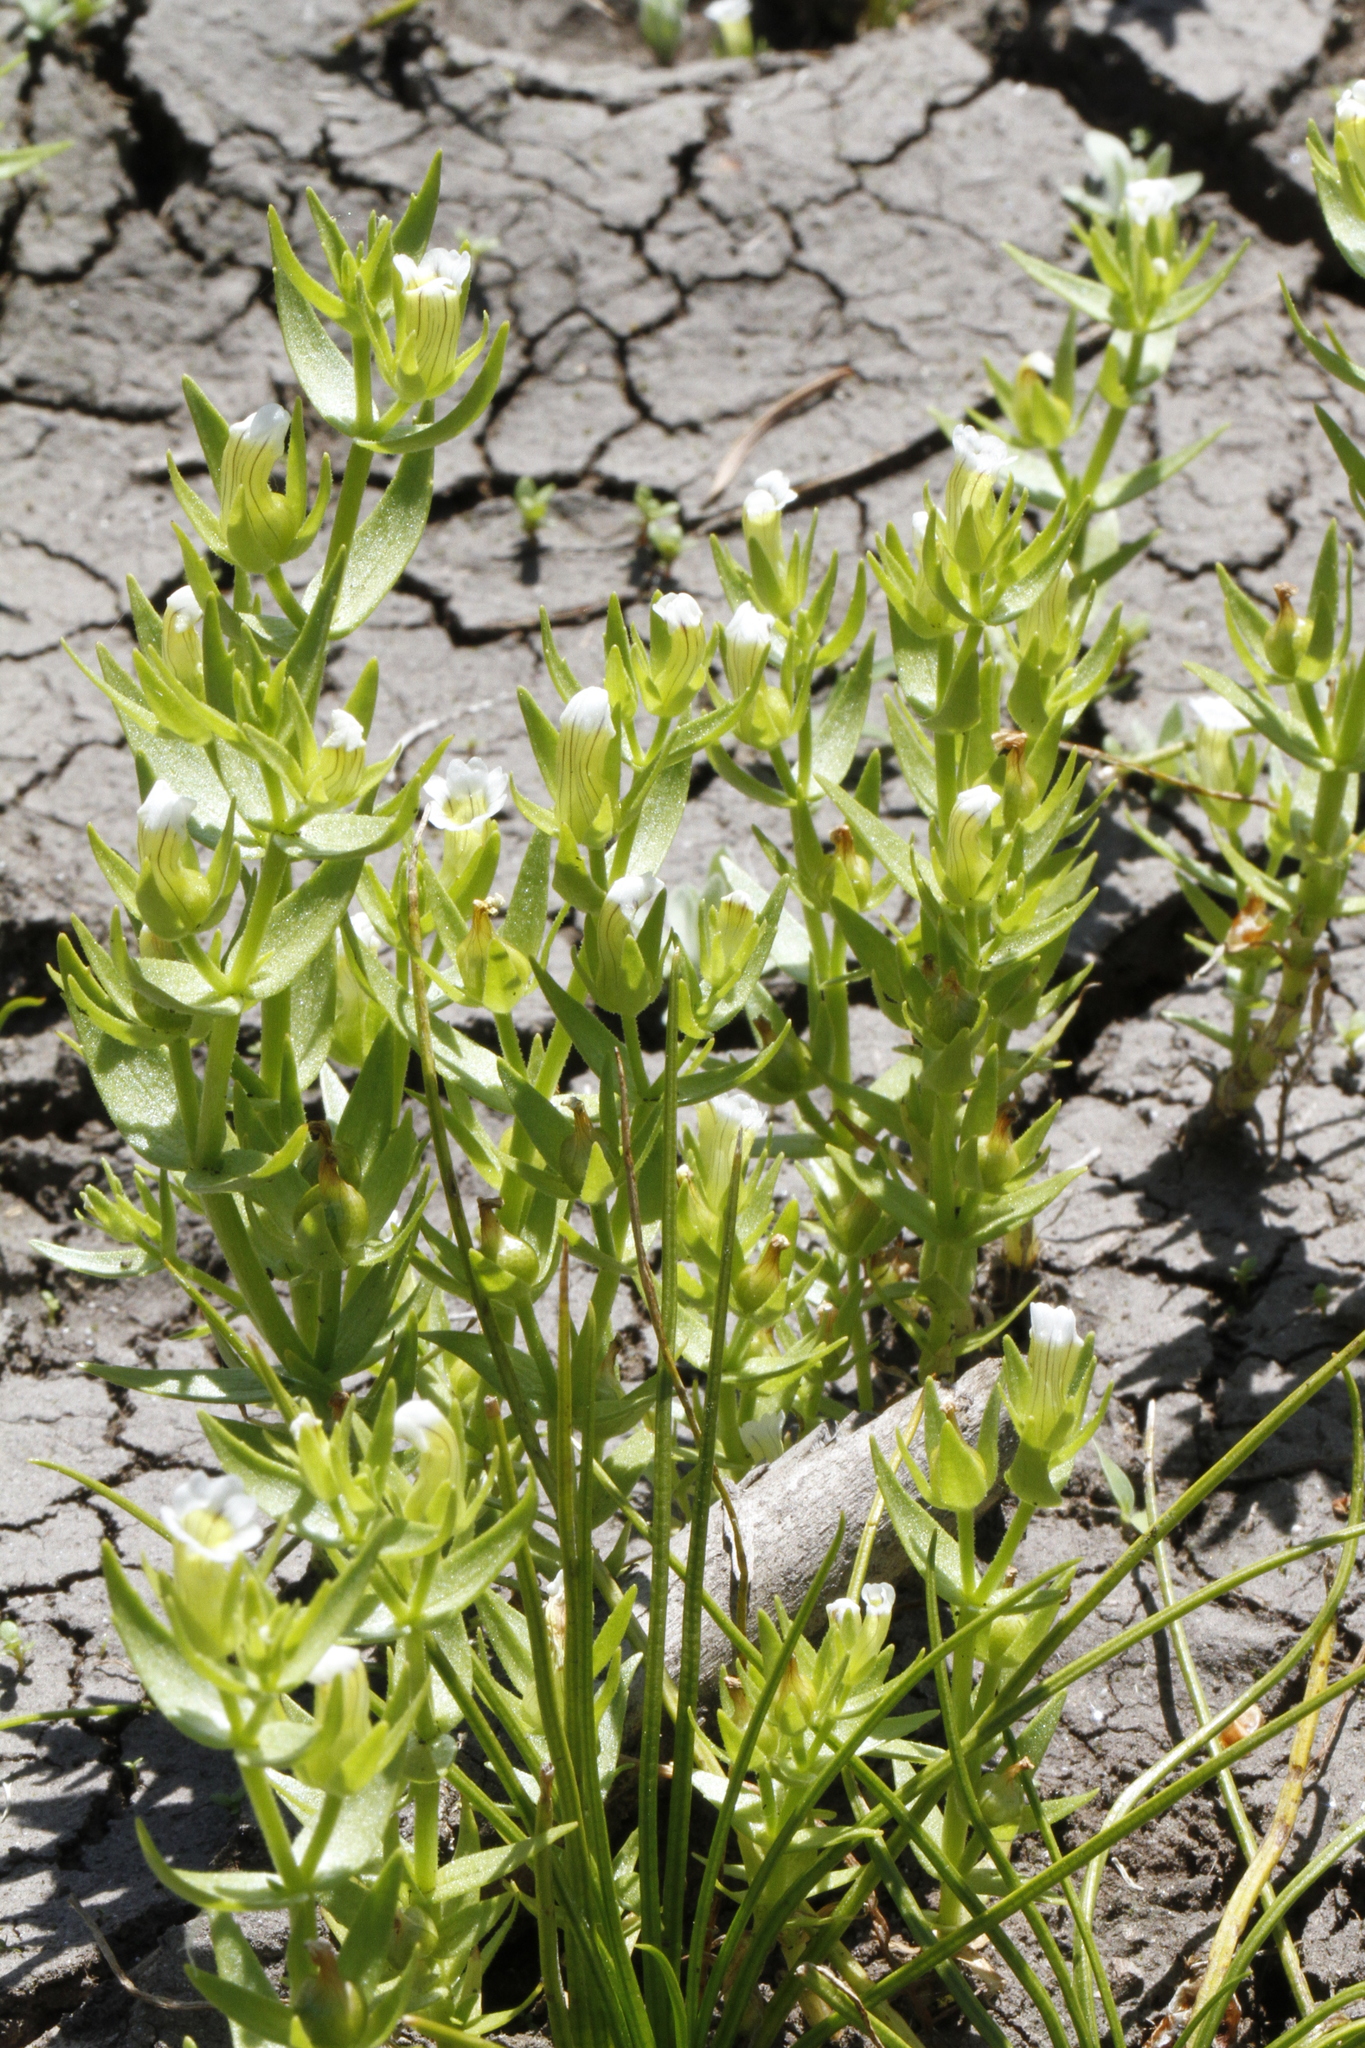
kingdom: Plantae
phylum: Tracheophyta
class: Magnoliopsida
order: Lamiales
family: Plantaginaceae
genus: Gratiola
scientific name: Gratiola ebracteata
